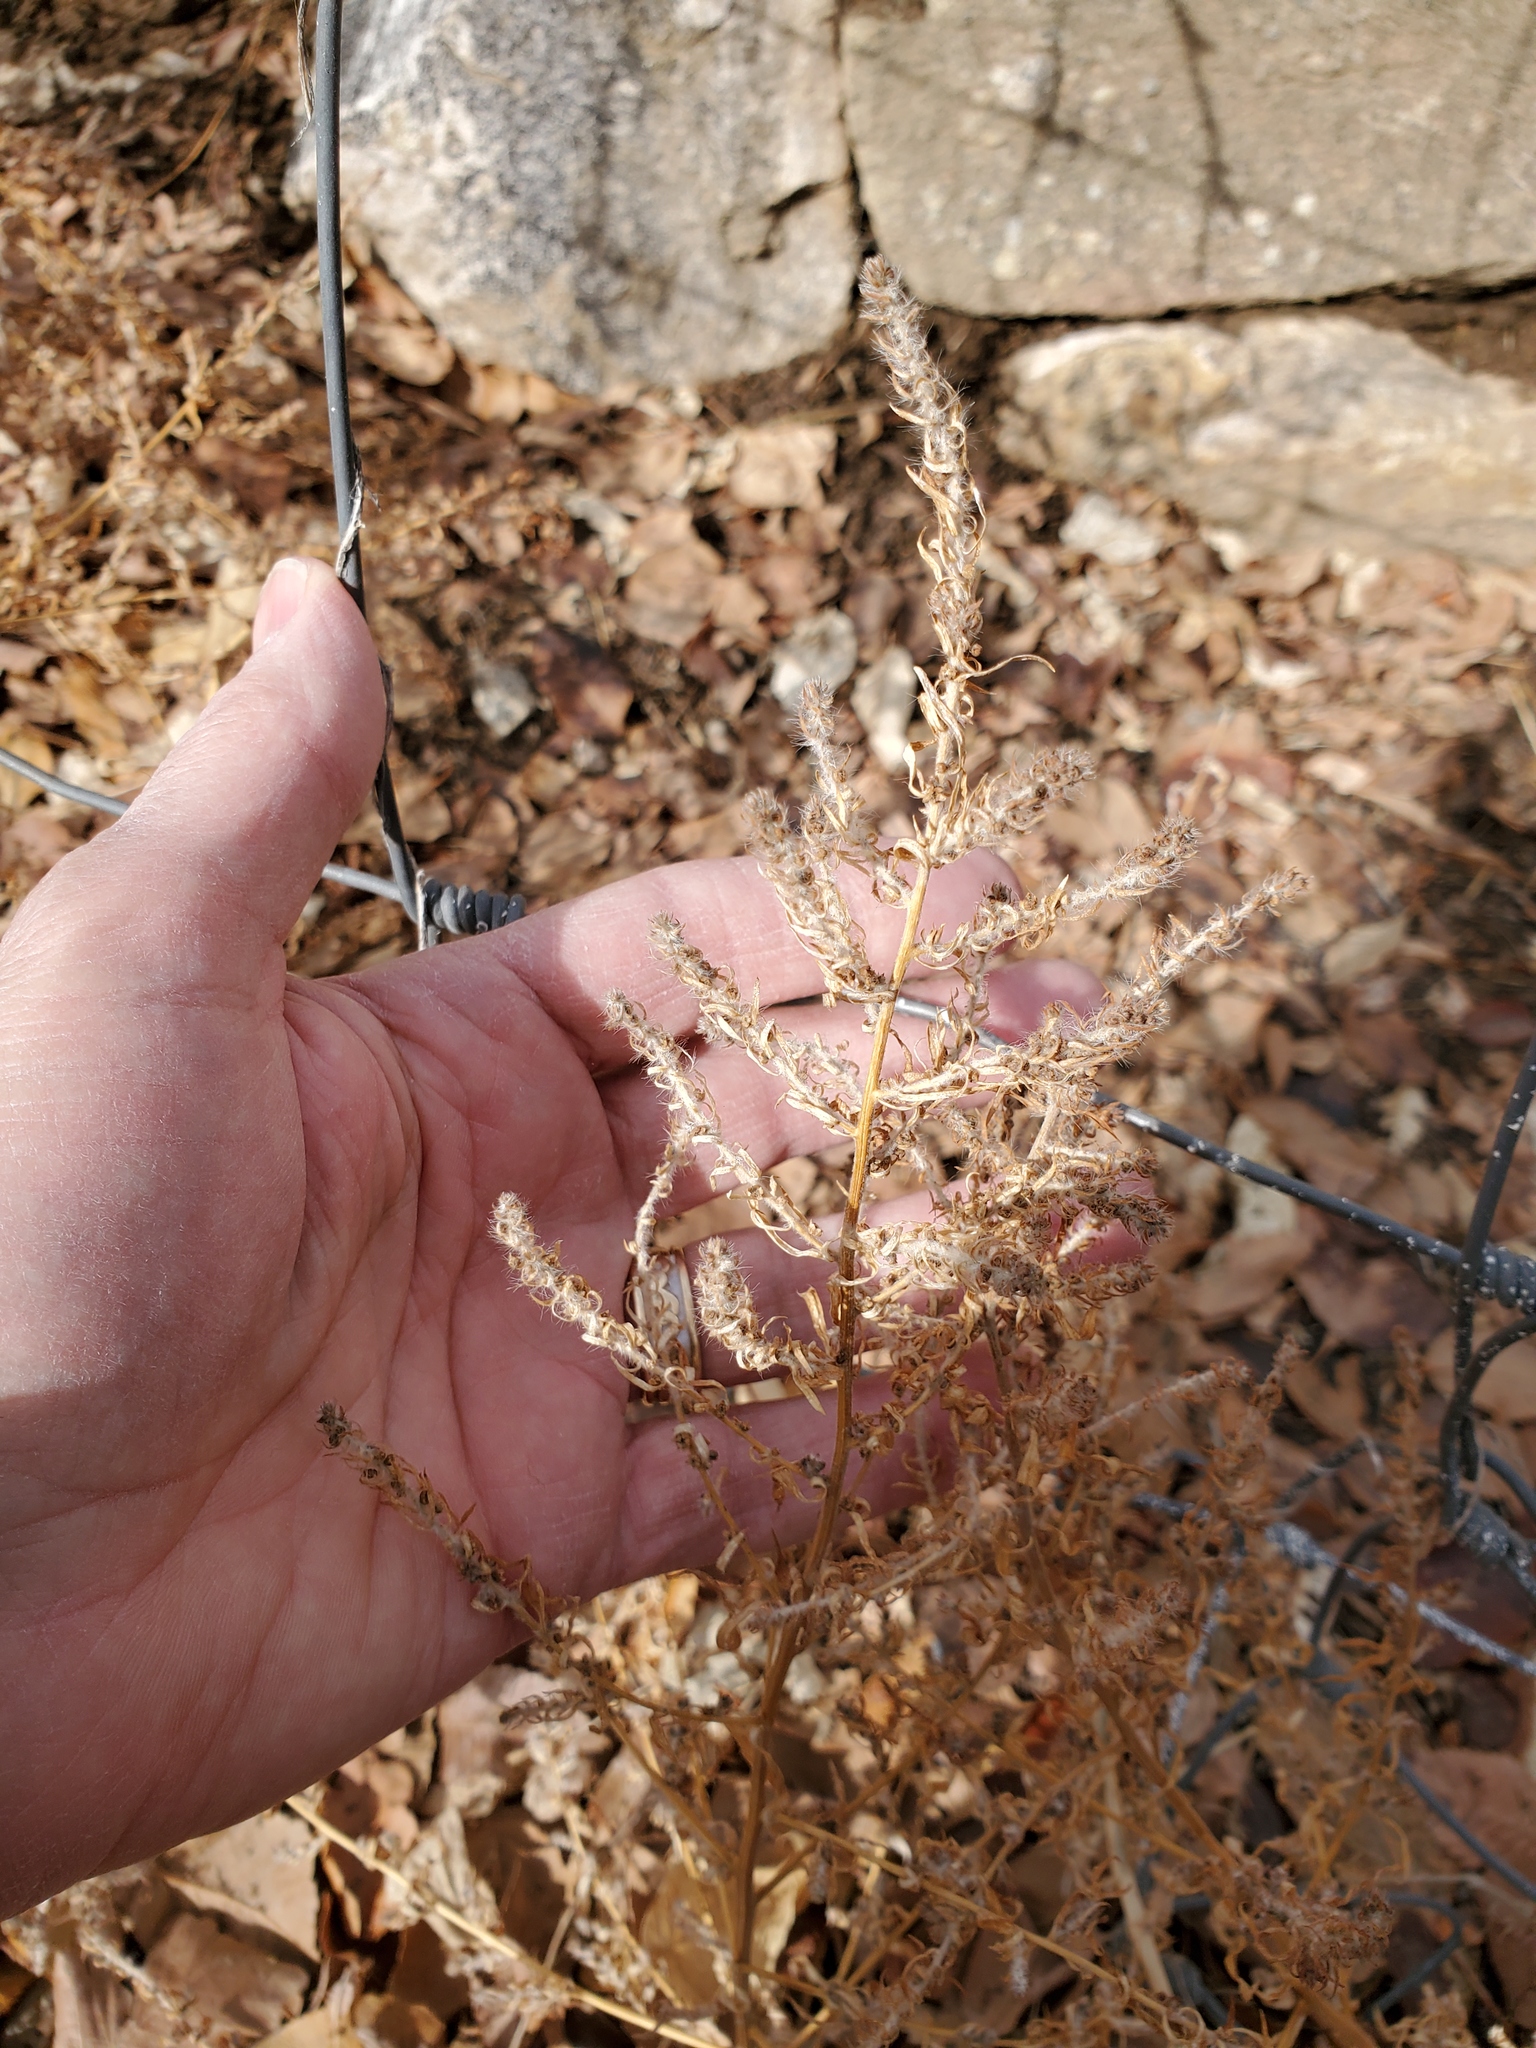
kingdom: Plantae
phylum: Tracheophyta
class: Magnoliopsida
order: Caryophyllales
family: Amaranthaceae
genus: Bassia
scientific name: Bassia scoparia
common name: Belvedere
